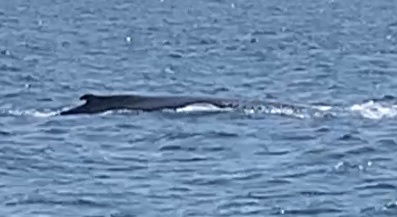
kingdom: Animalia
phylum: Chordata
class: Mammalia
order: Cetacea
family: Balaenopteridae
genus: Megaptera
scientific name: Megaptera novaeangliae
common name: Humpback whale
